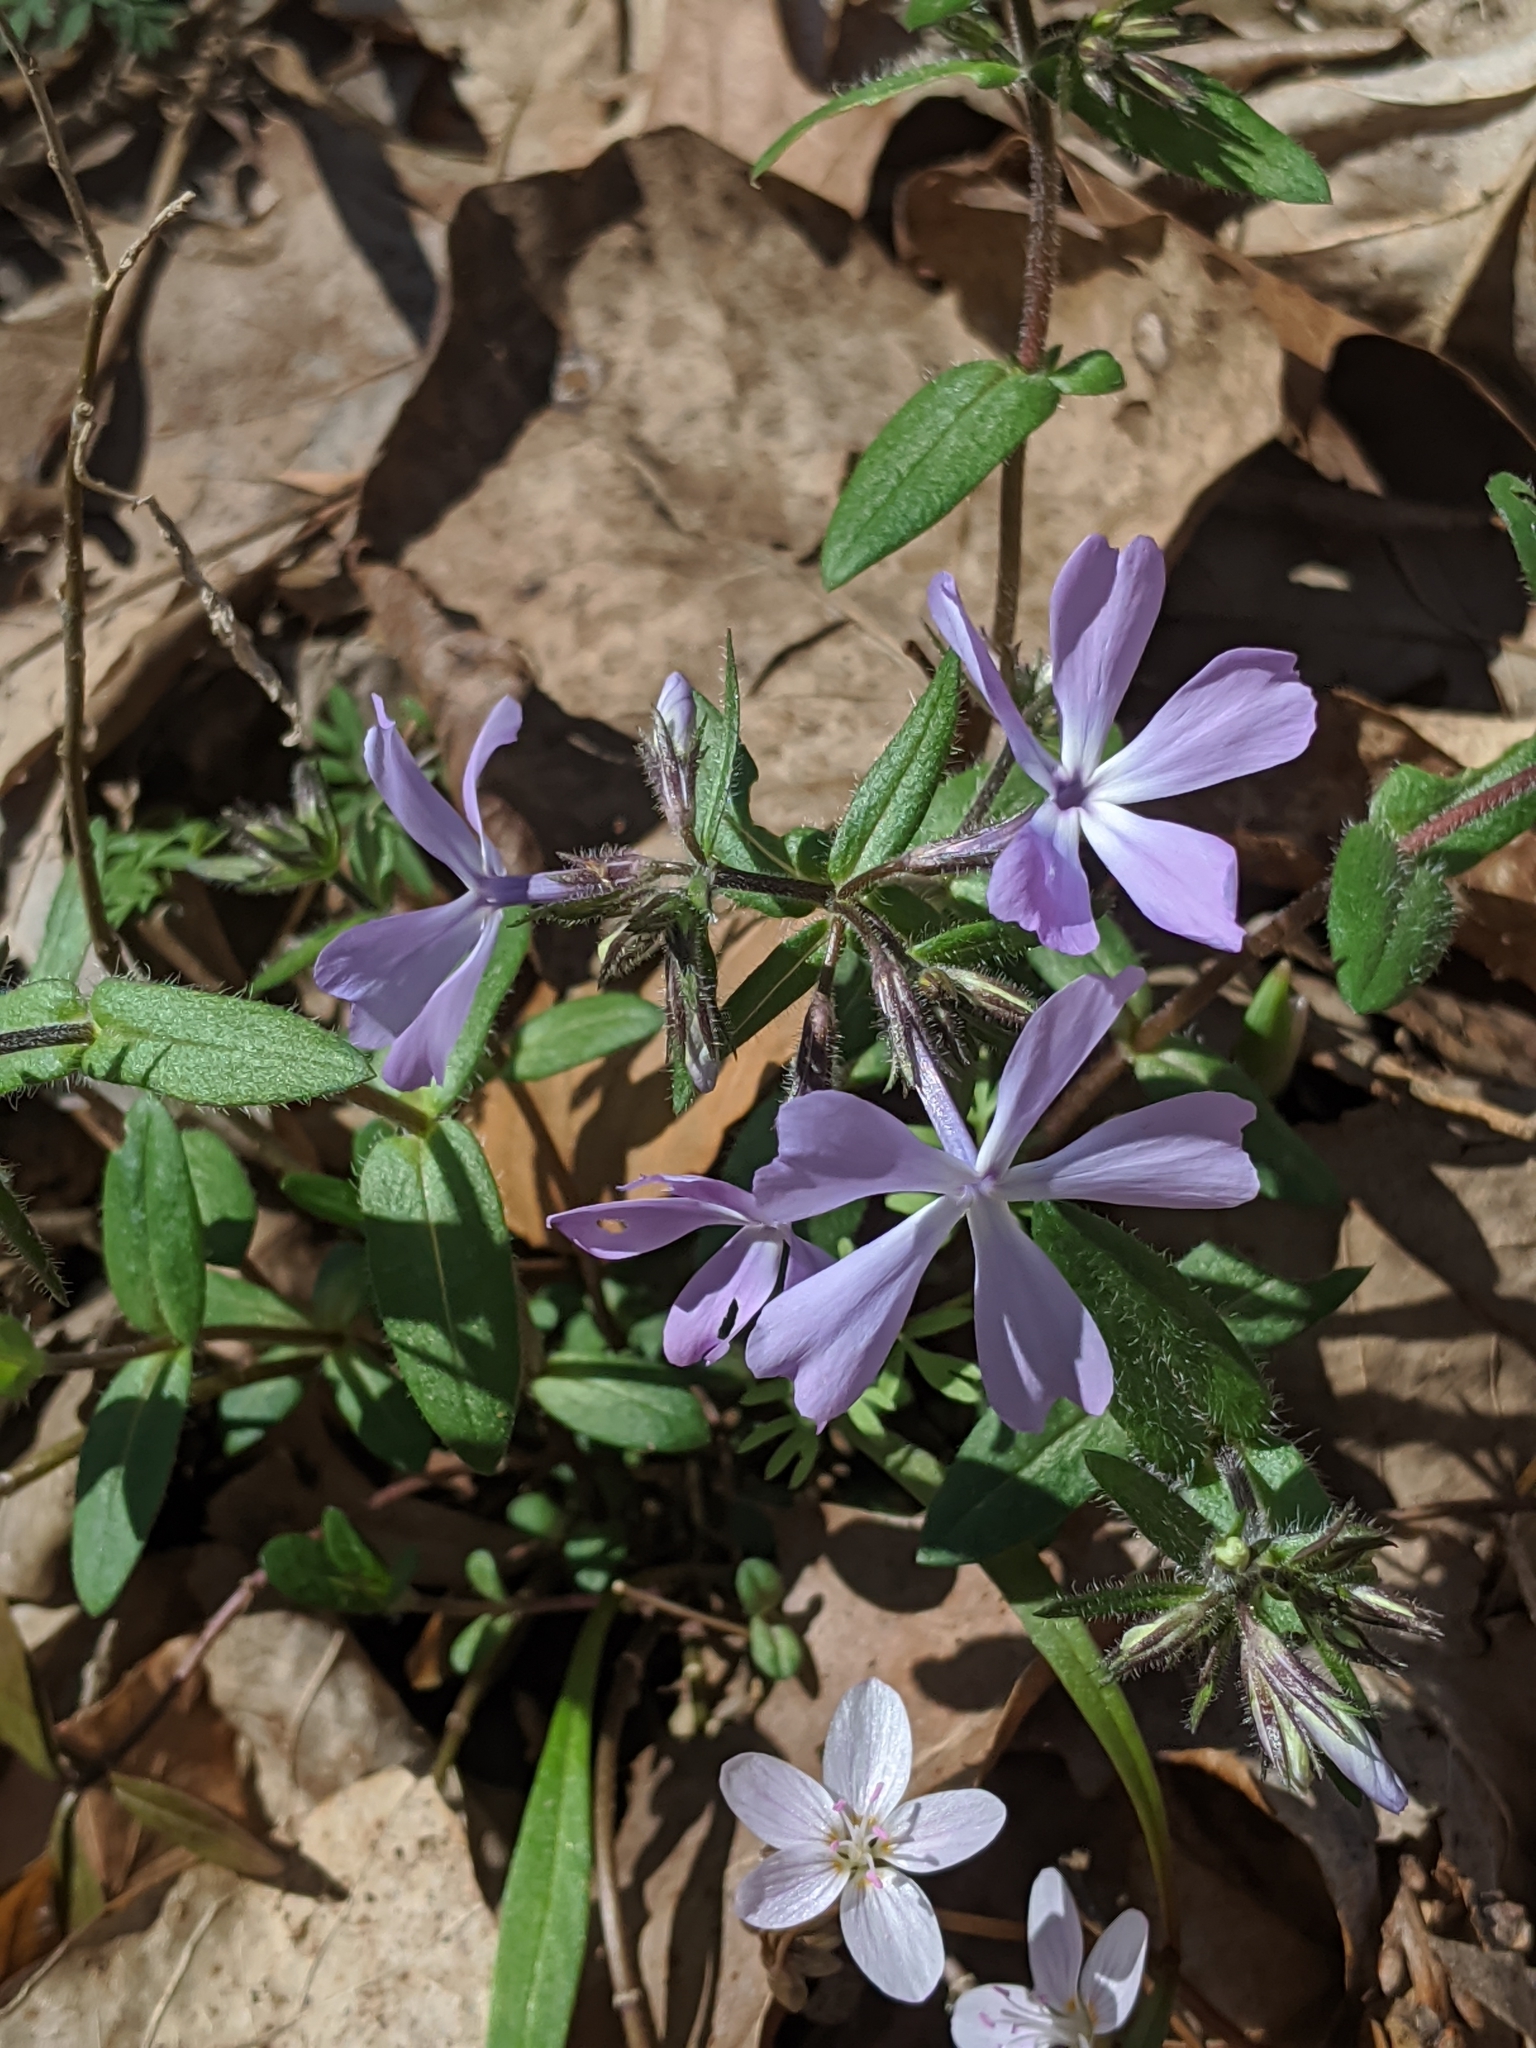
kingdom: Plantae
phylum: Tracheophyta
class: Magnoliopsida
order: Ericales
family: Polemoniaceae
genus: Phlox
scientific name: Phlox divaricata
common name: Blue phlox
